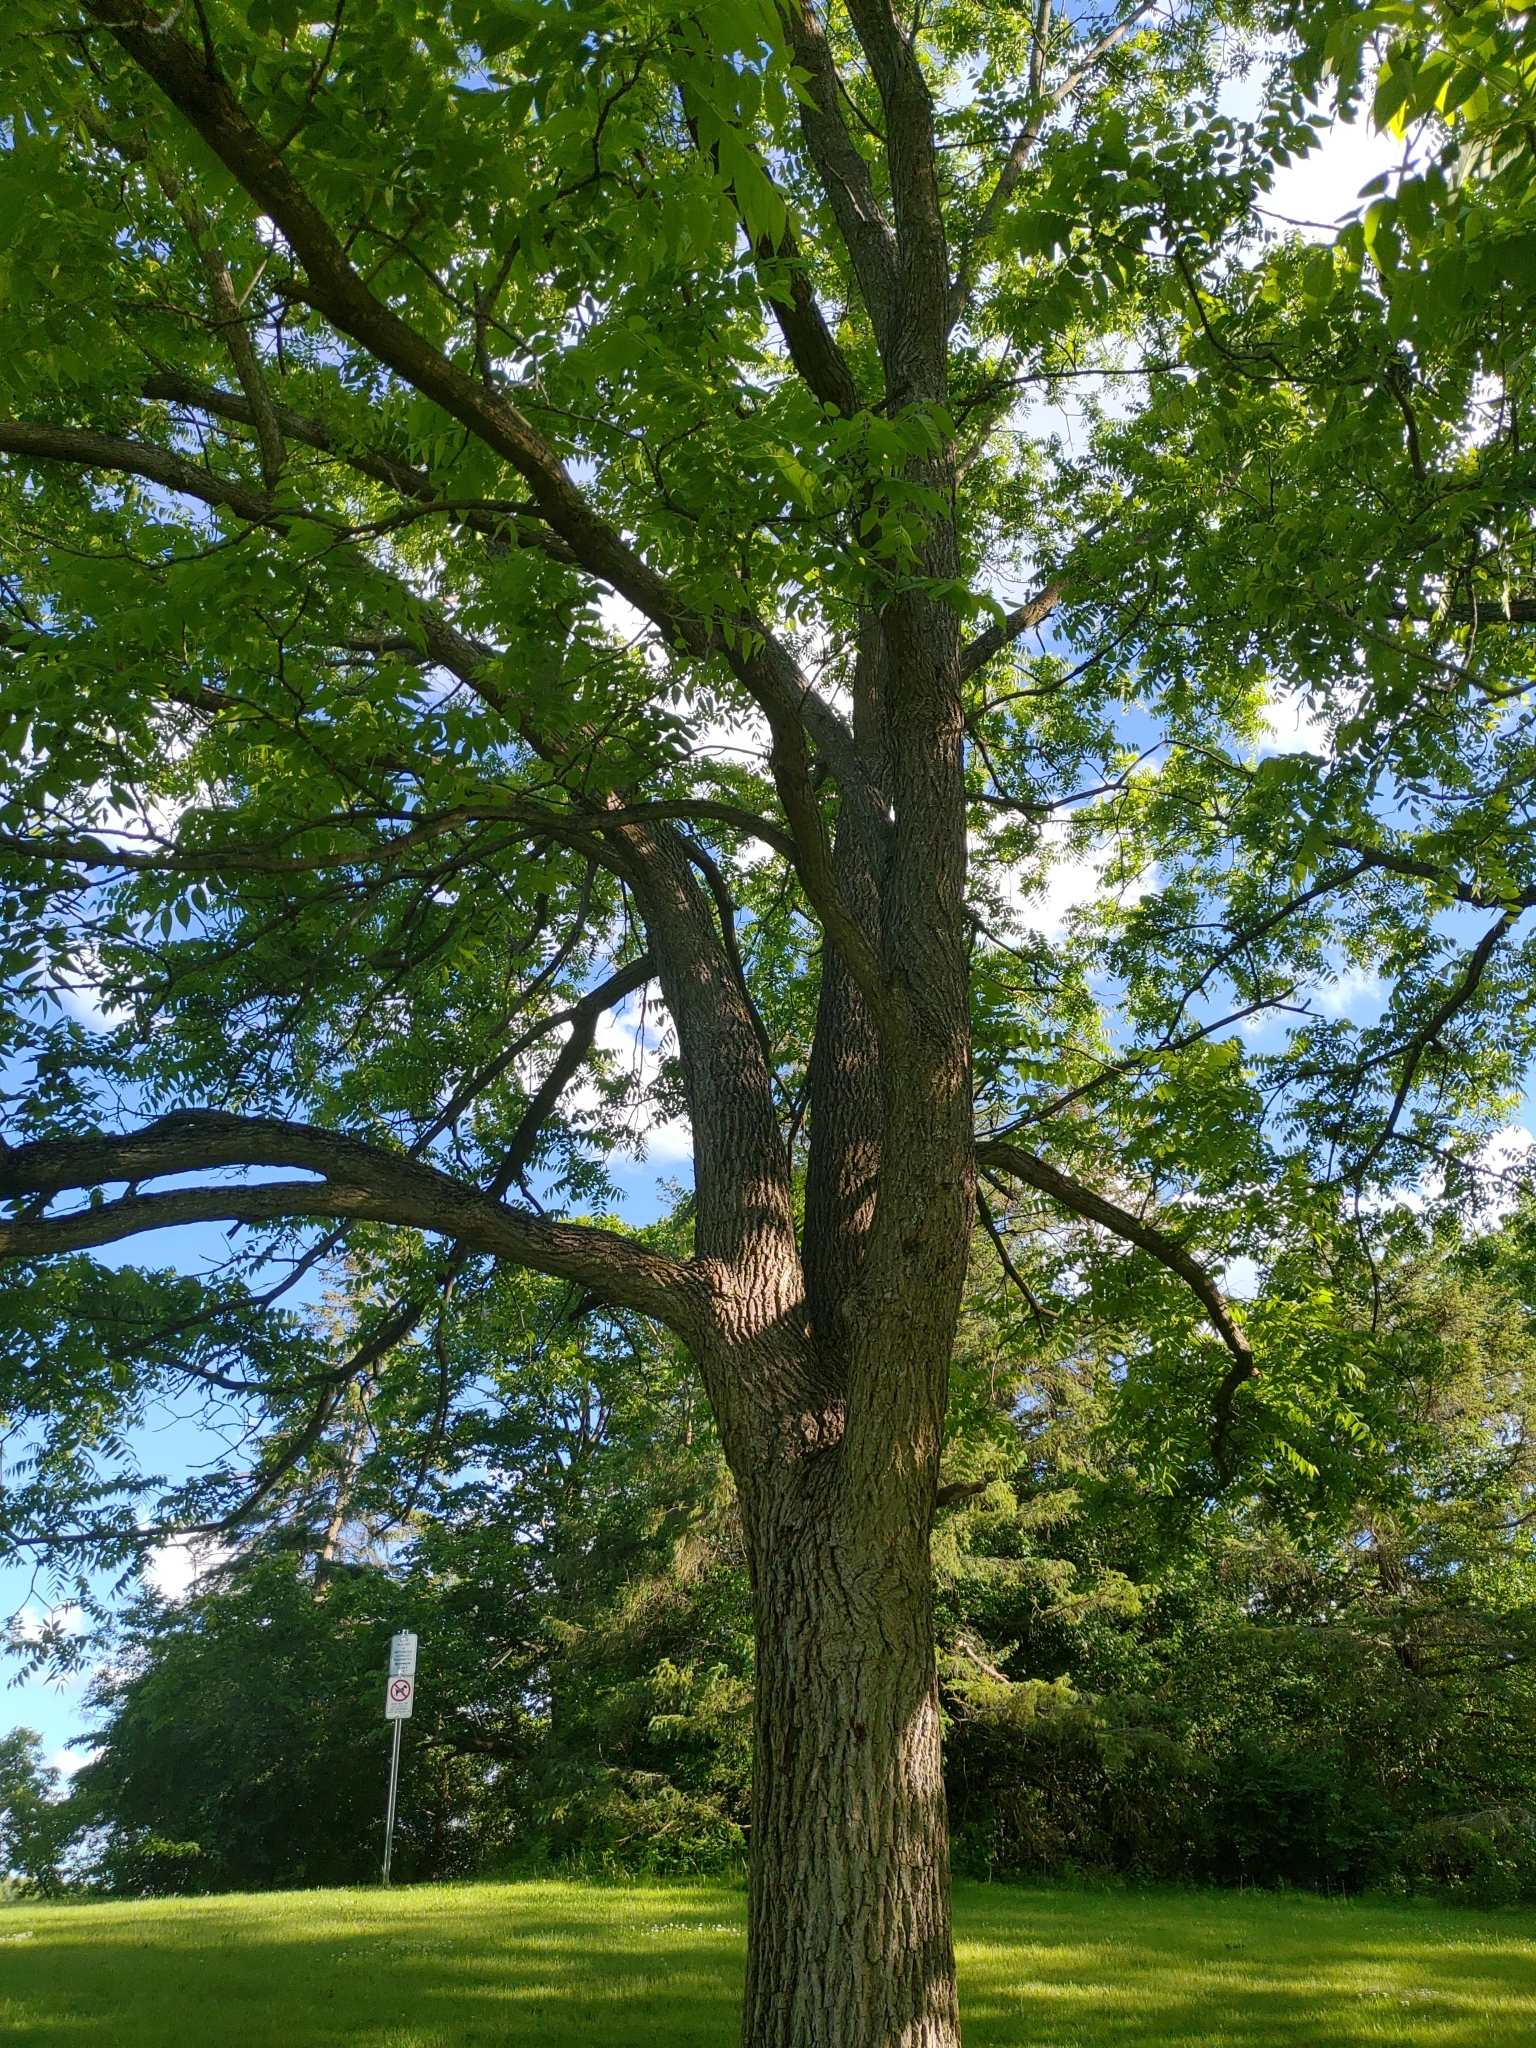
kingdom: Plantae
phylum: Tracheophyta
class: Magnoliopsida
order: Fagales
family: Juglandaceae
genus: Juglans
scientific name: Juglans nigra
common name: Black walnut
